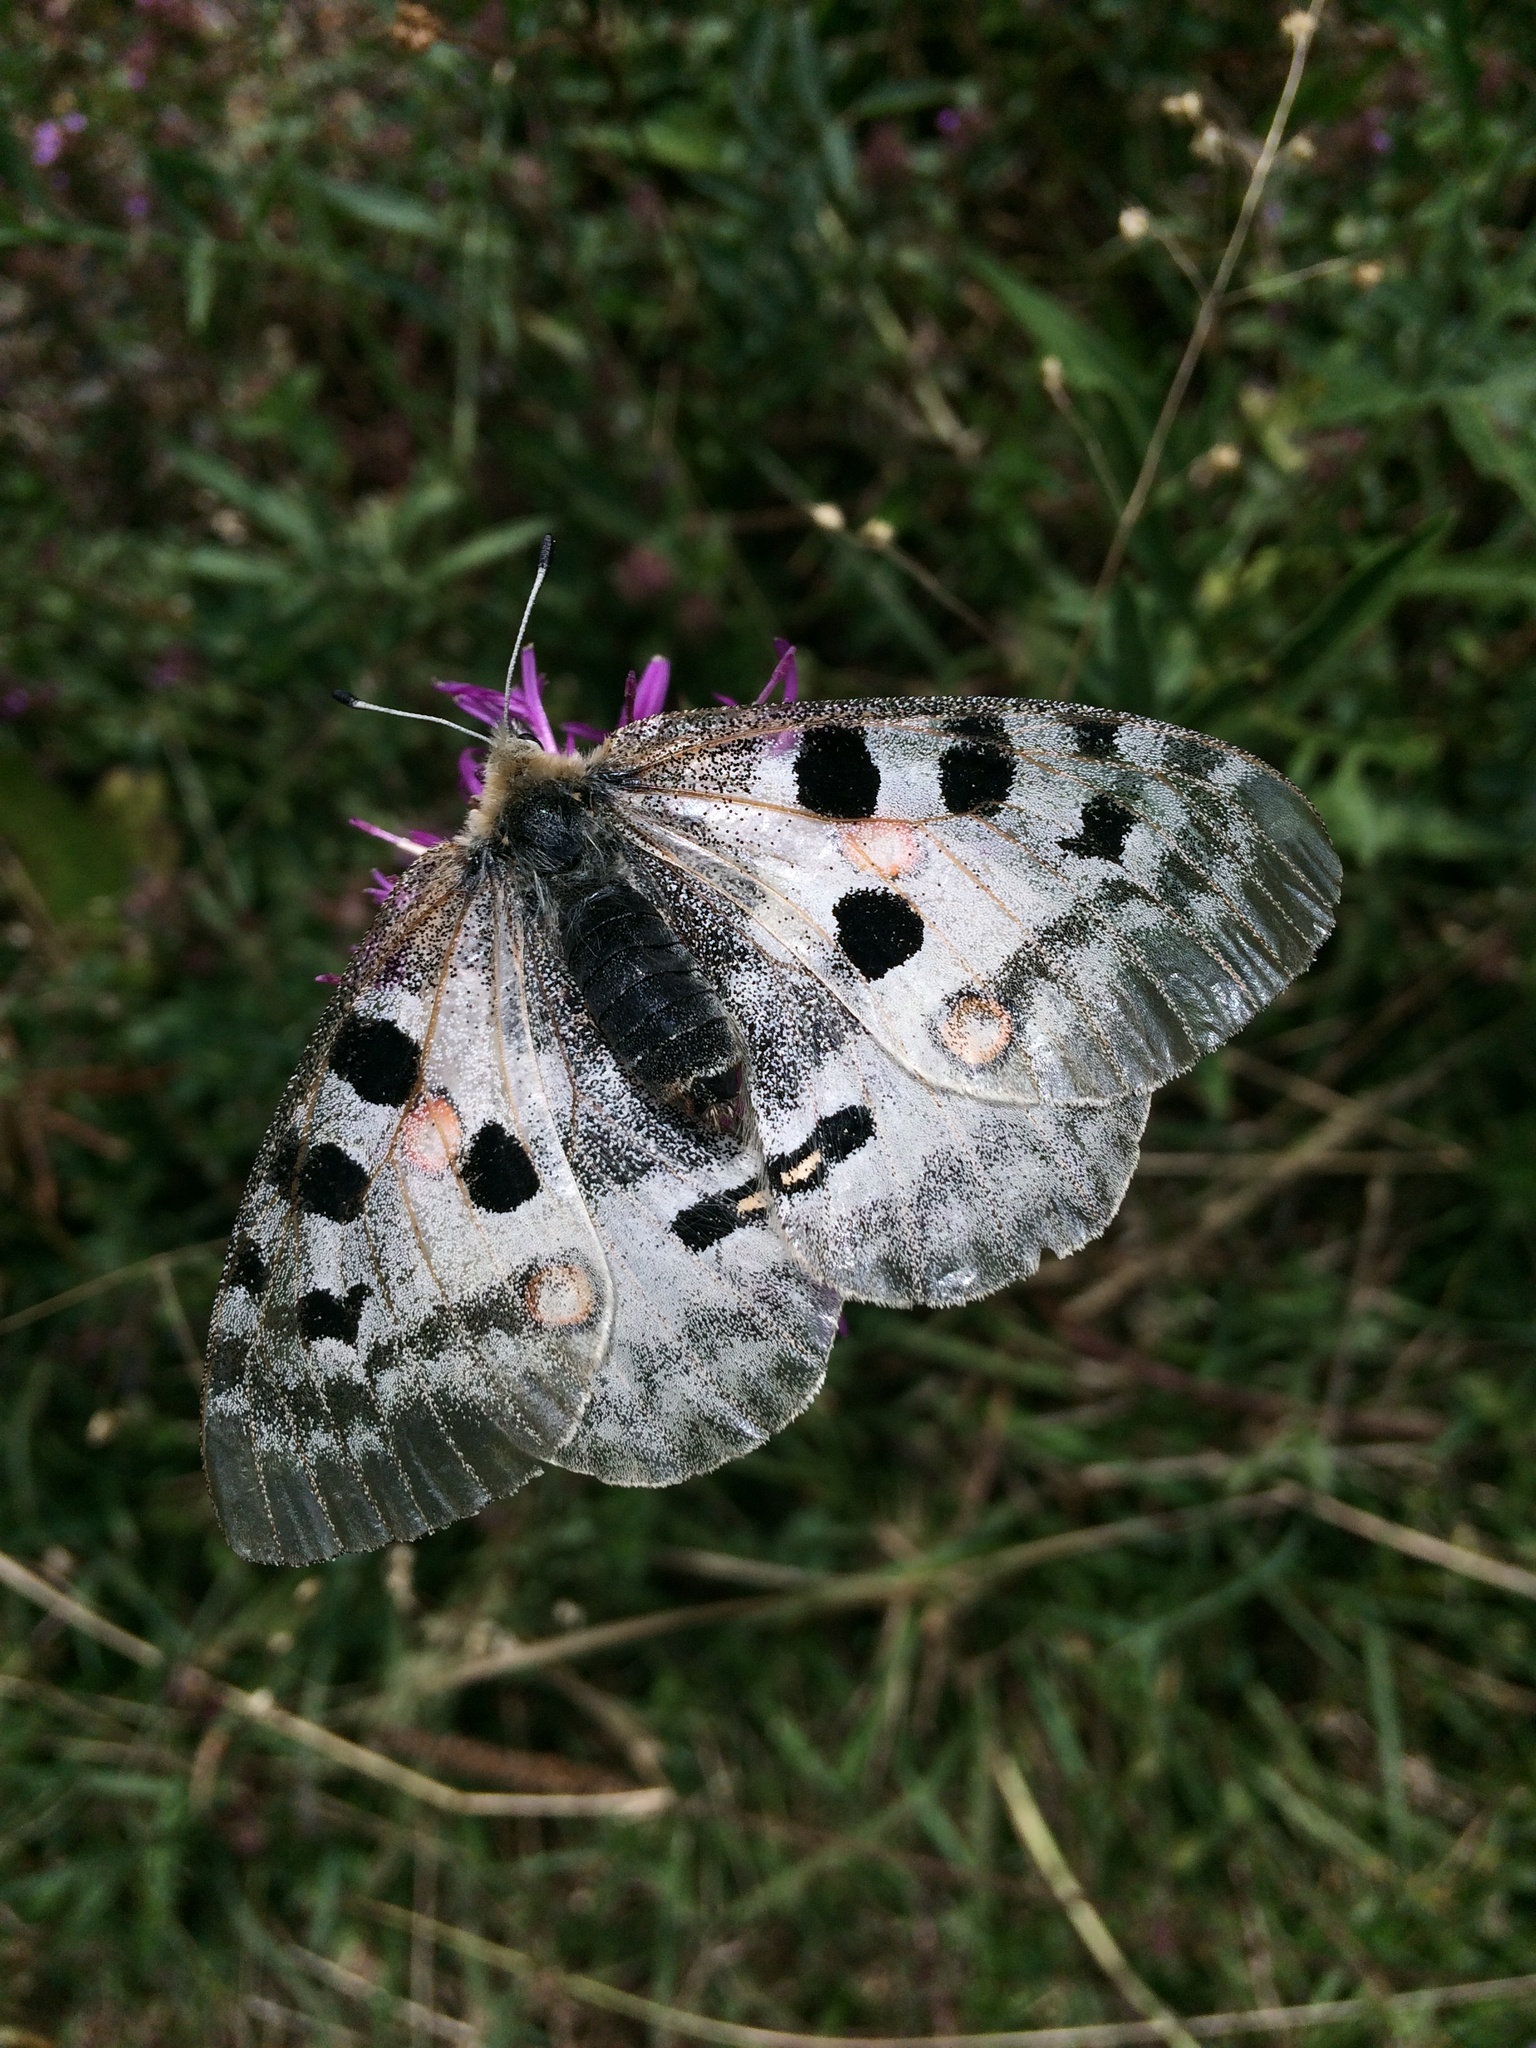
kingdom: Animalia
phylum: Arthropoda
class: Insecta
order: Lepidoptera
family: Papilionidae
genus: Parnassius
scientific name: Parnassius apollo
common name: Apollo
